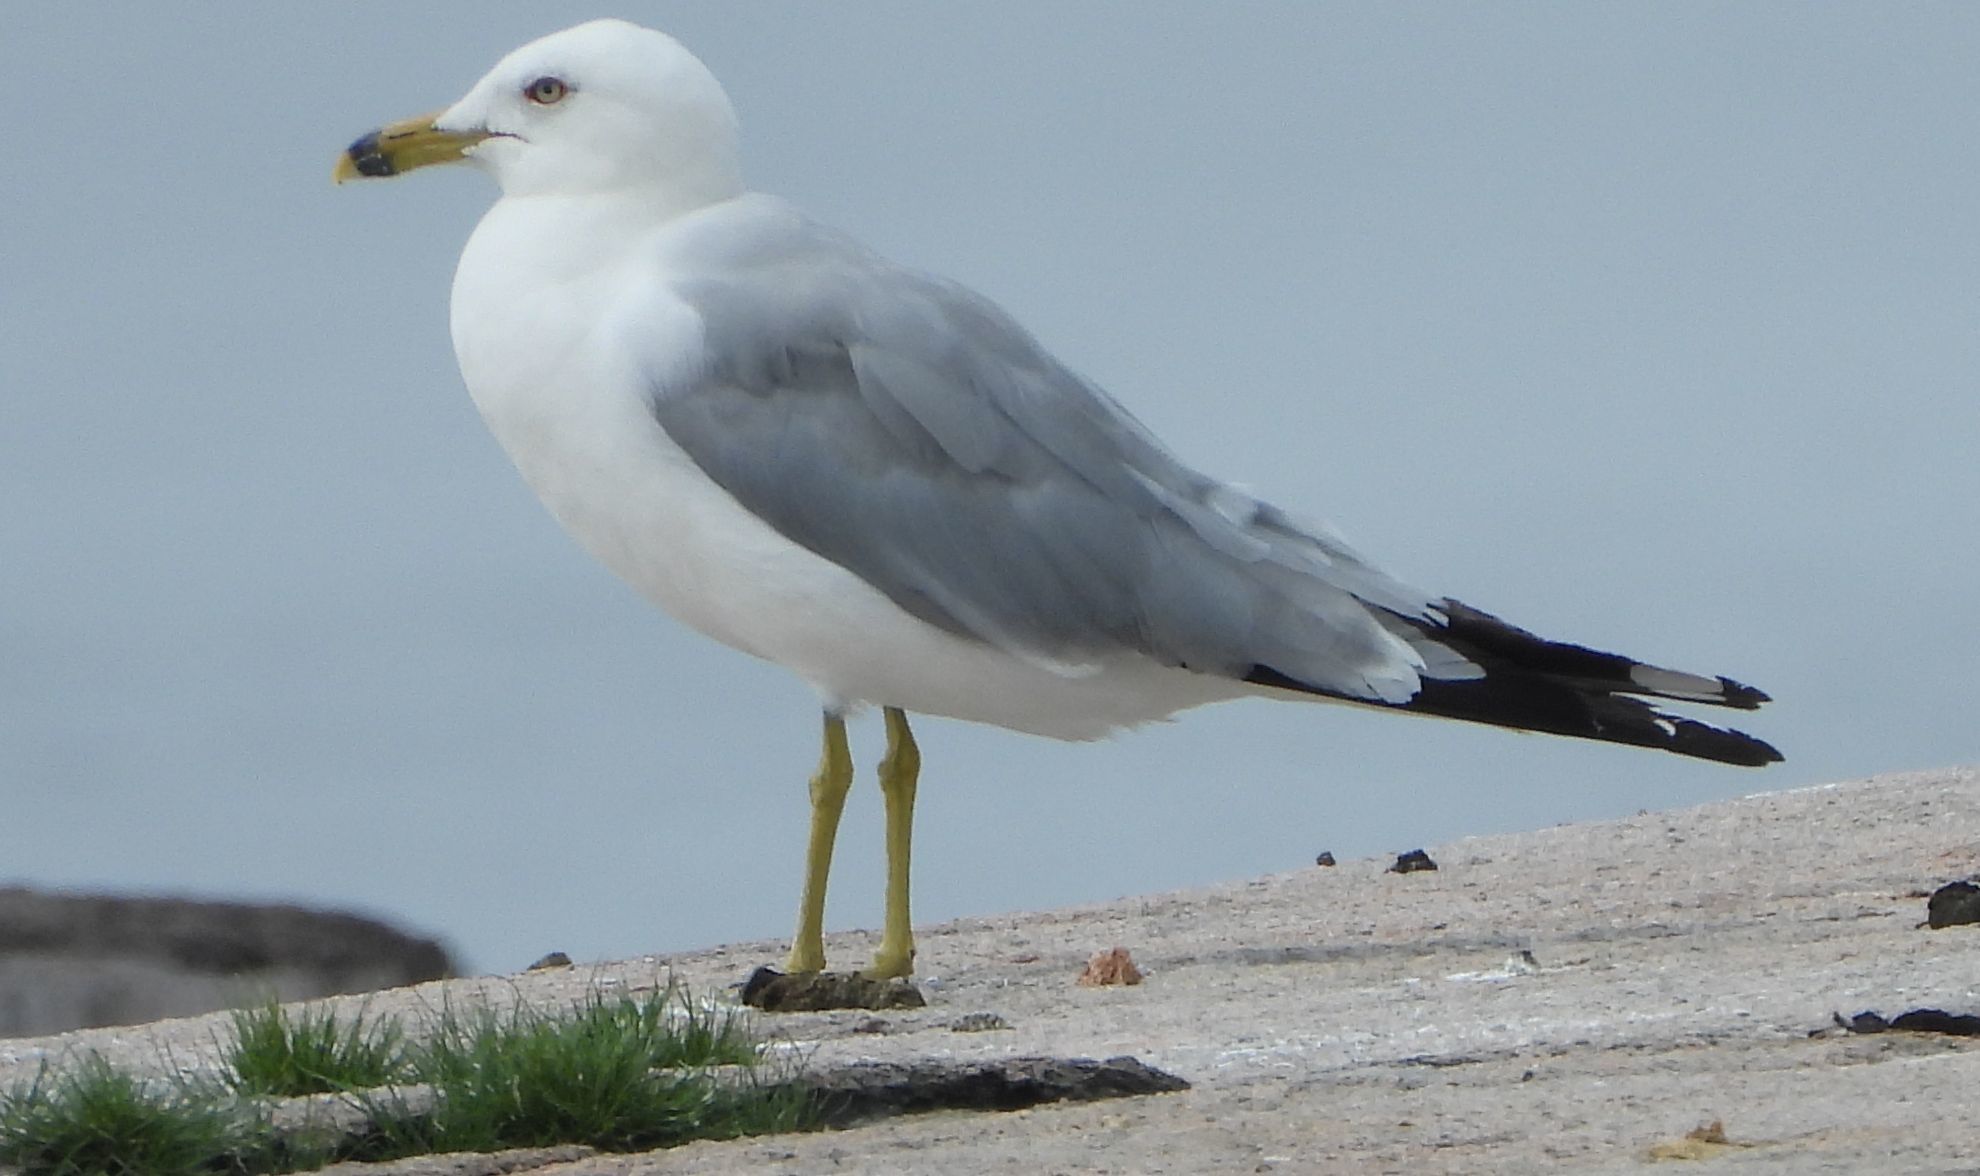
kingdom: Animalia
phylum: Chordata
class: Aves
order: Charadriiformes
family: Laridae
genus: Larus
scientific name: Larus delawarensis
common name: Ring-billed gull
